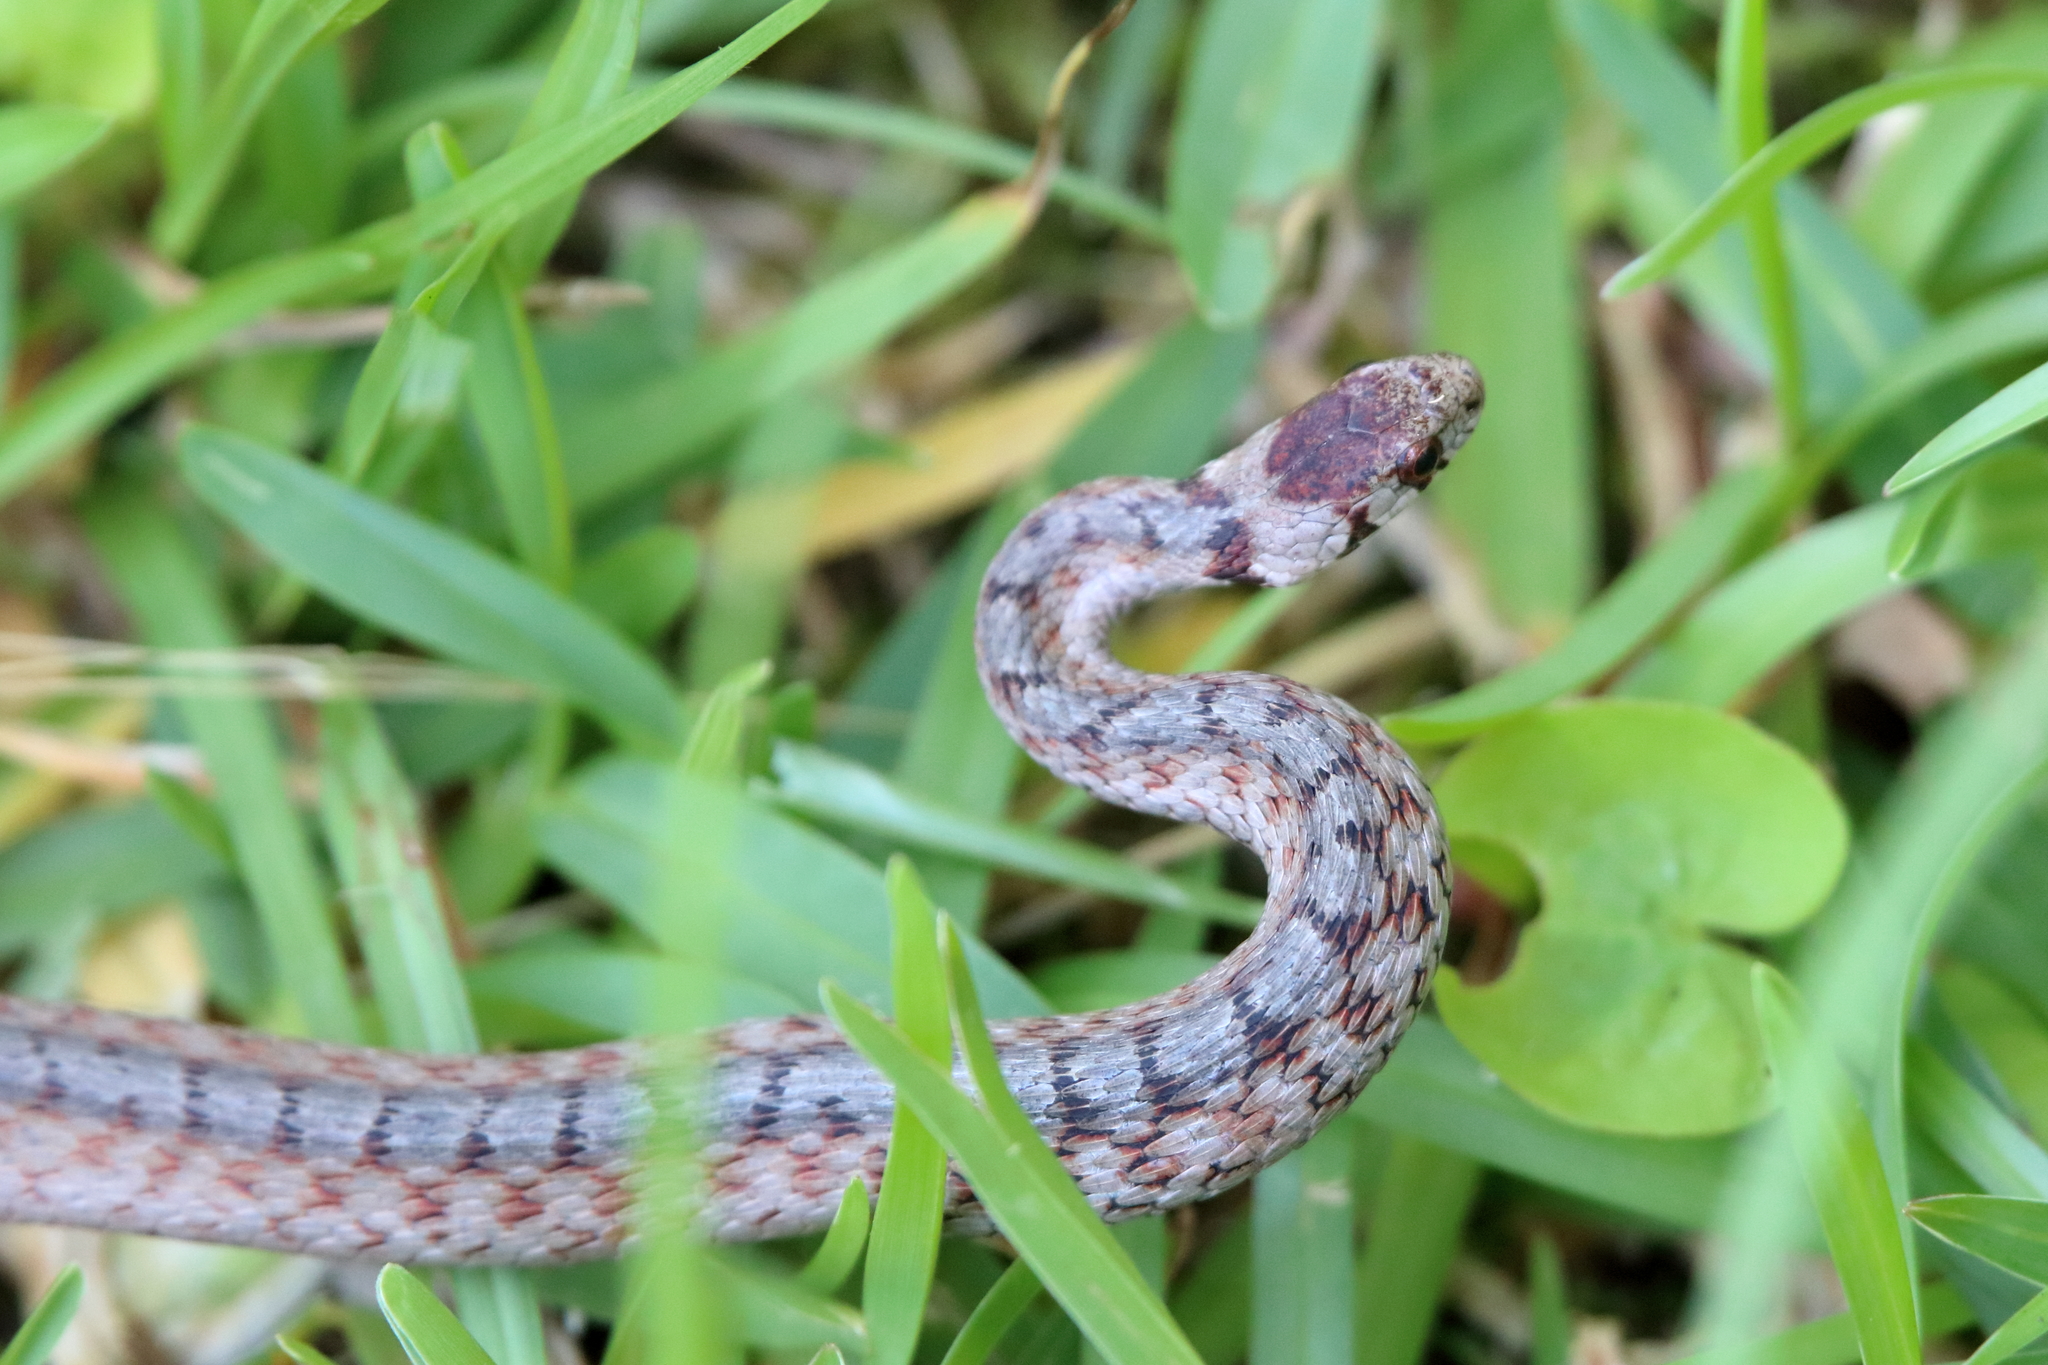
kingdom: Animalia
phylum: Chordata
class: Squamata
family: Colubridae
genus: Storeria
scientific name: Storeria dekayi
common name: (dekay’s) brown snake
